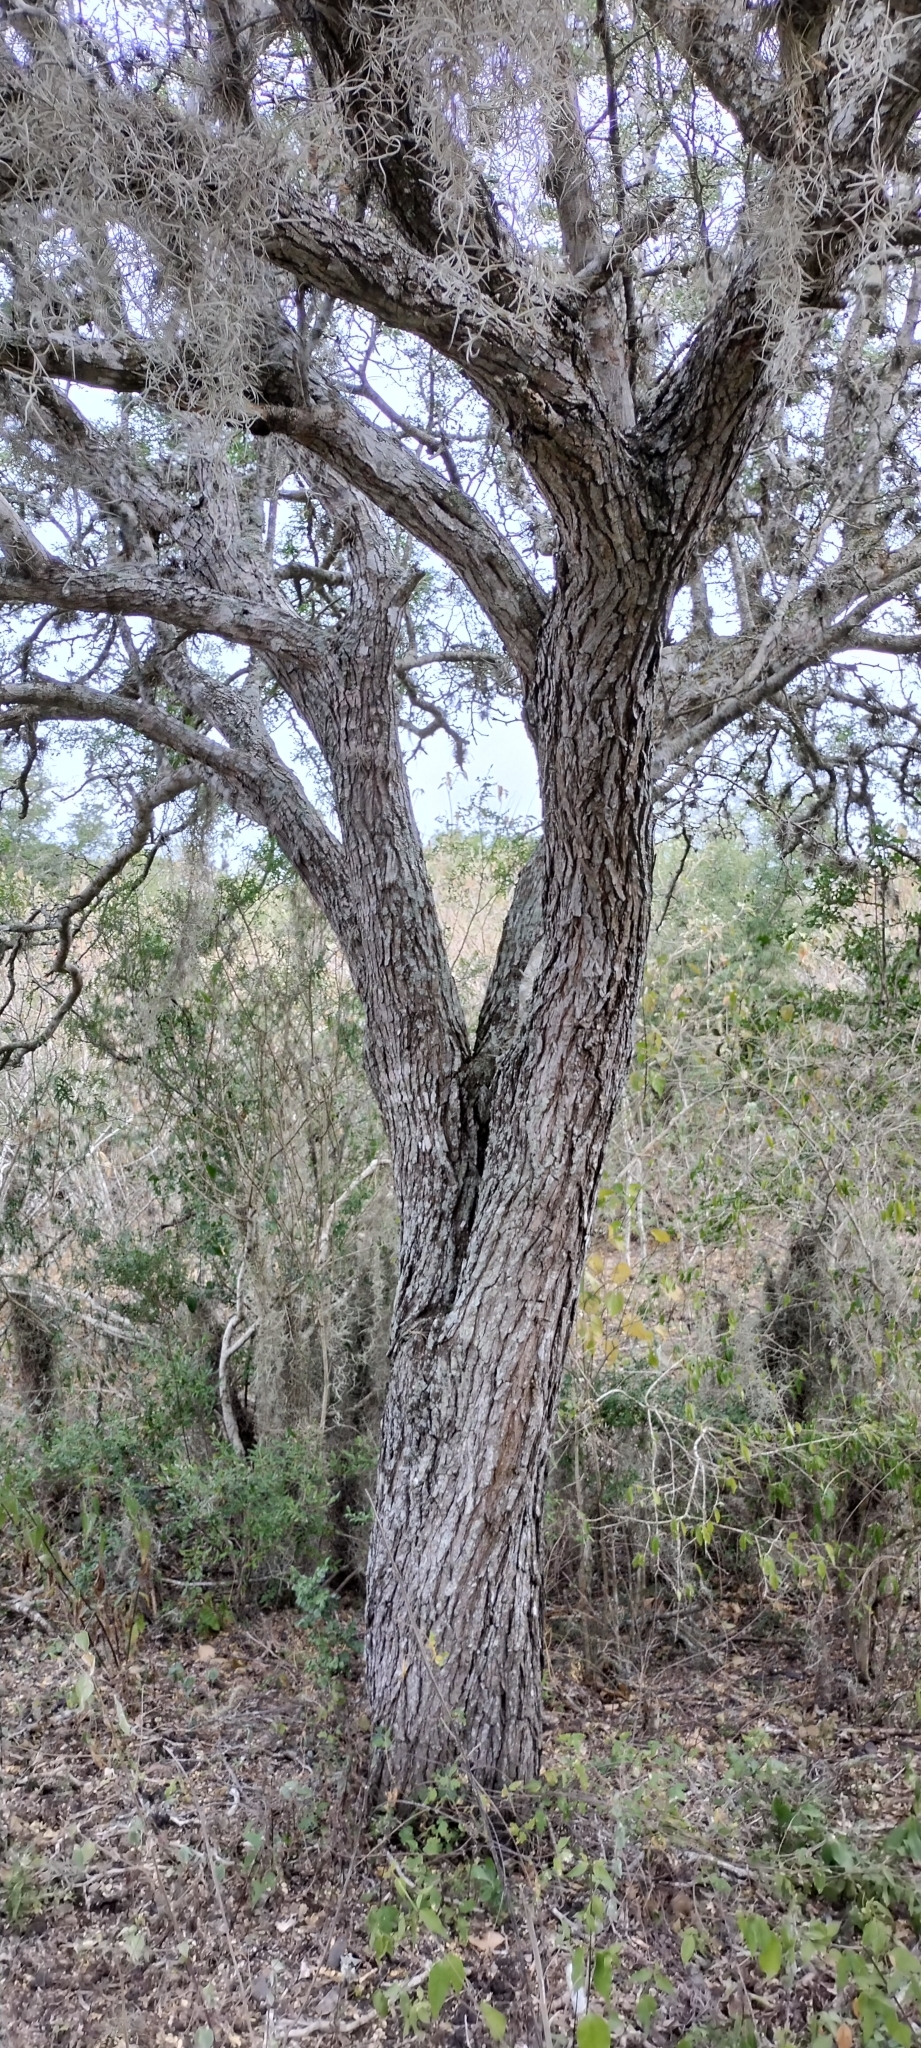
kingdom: Plantae
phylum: Tracheophyta
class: Magnoliopsida
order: Fabales
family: Fabaceae
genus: Ebenopsis
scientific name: Ebenopsis ebano
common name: Ebony blackbead
